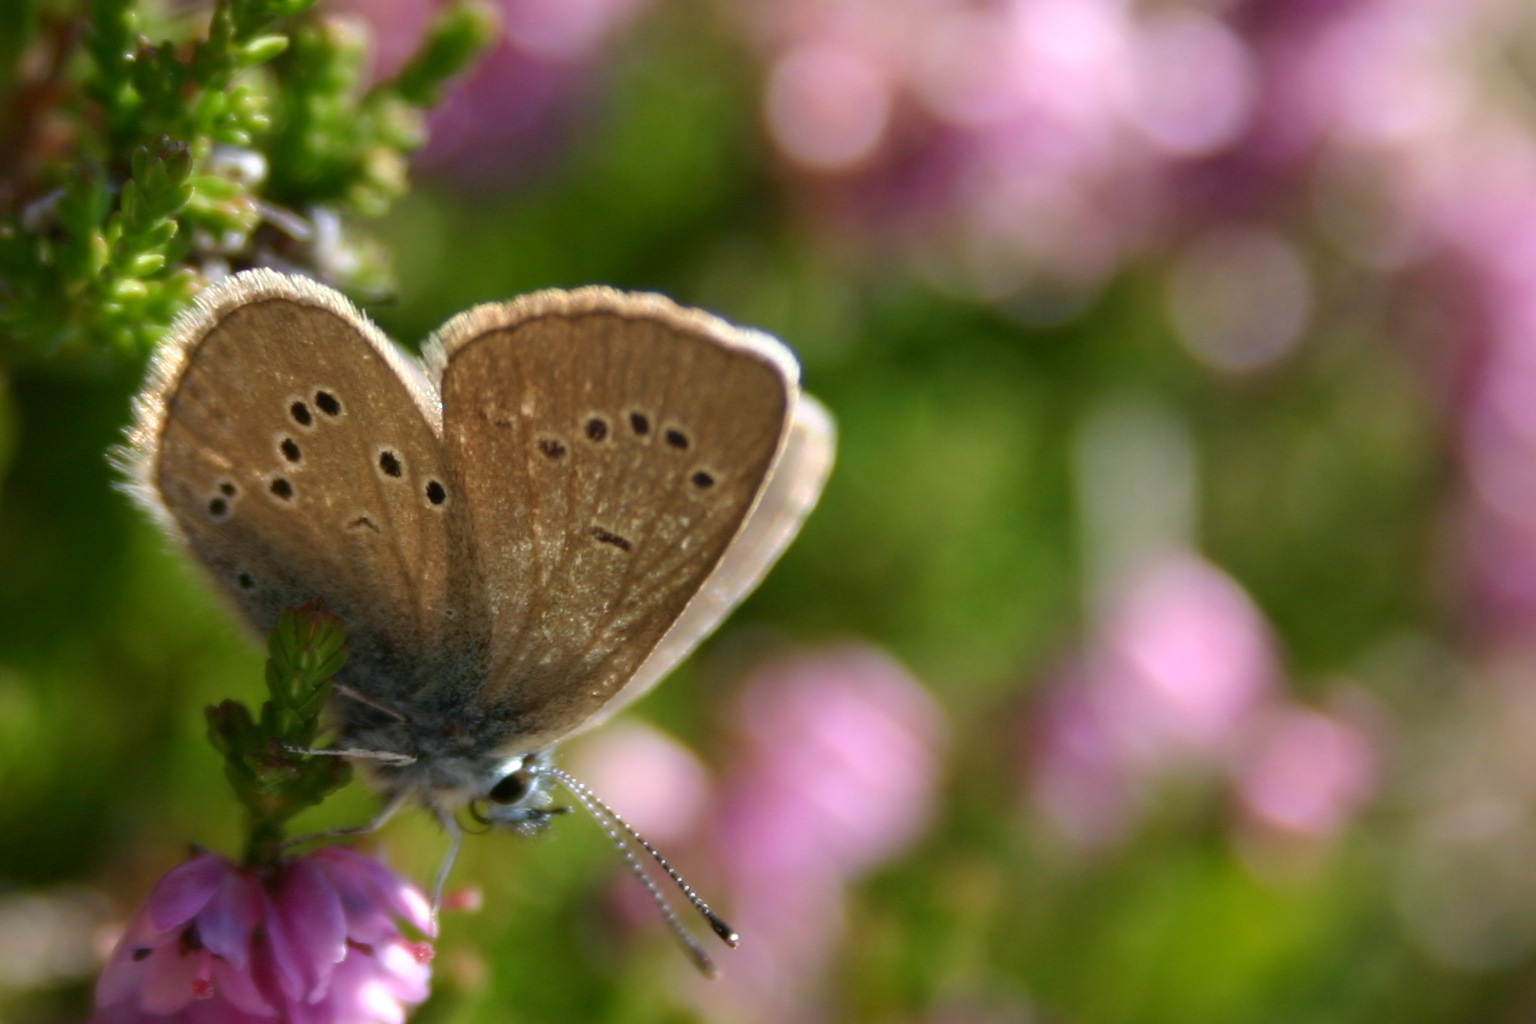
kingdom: Animalia
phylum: Arthropoda
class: Insecta
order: Lepidoptera
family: Lycaenidae
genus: Cyaniris
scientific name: Cyaniris semiargus
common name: Mazarine blue
